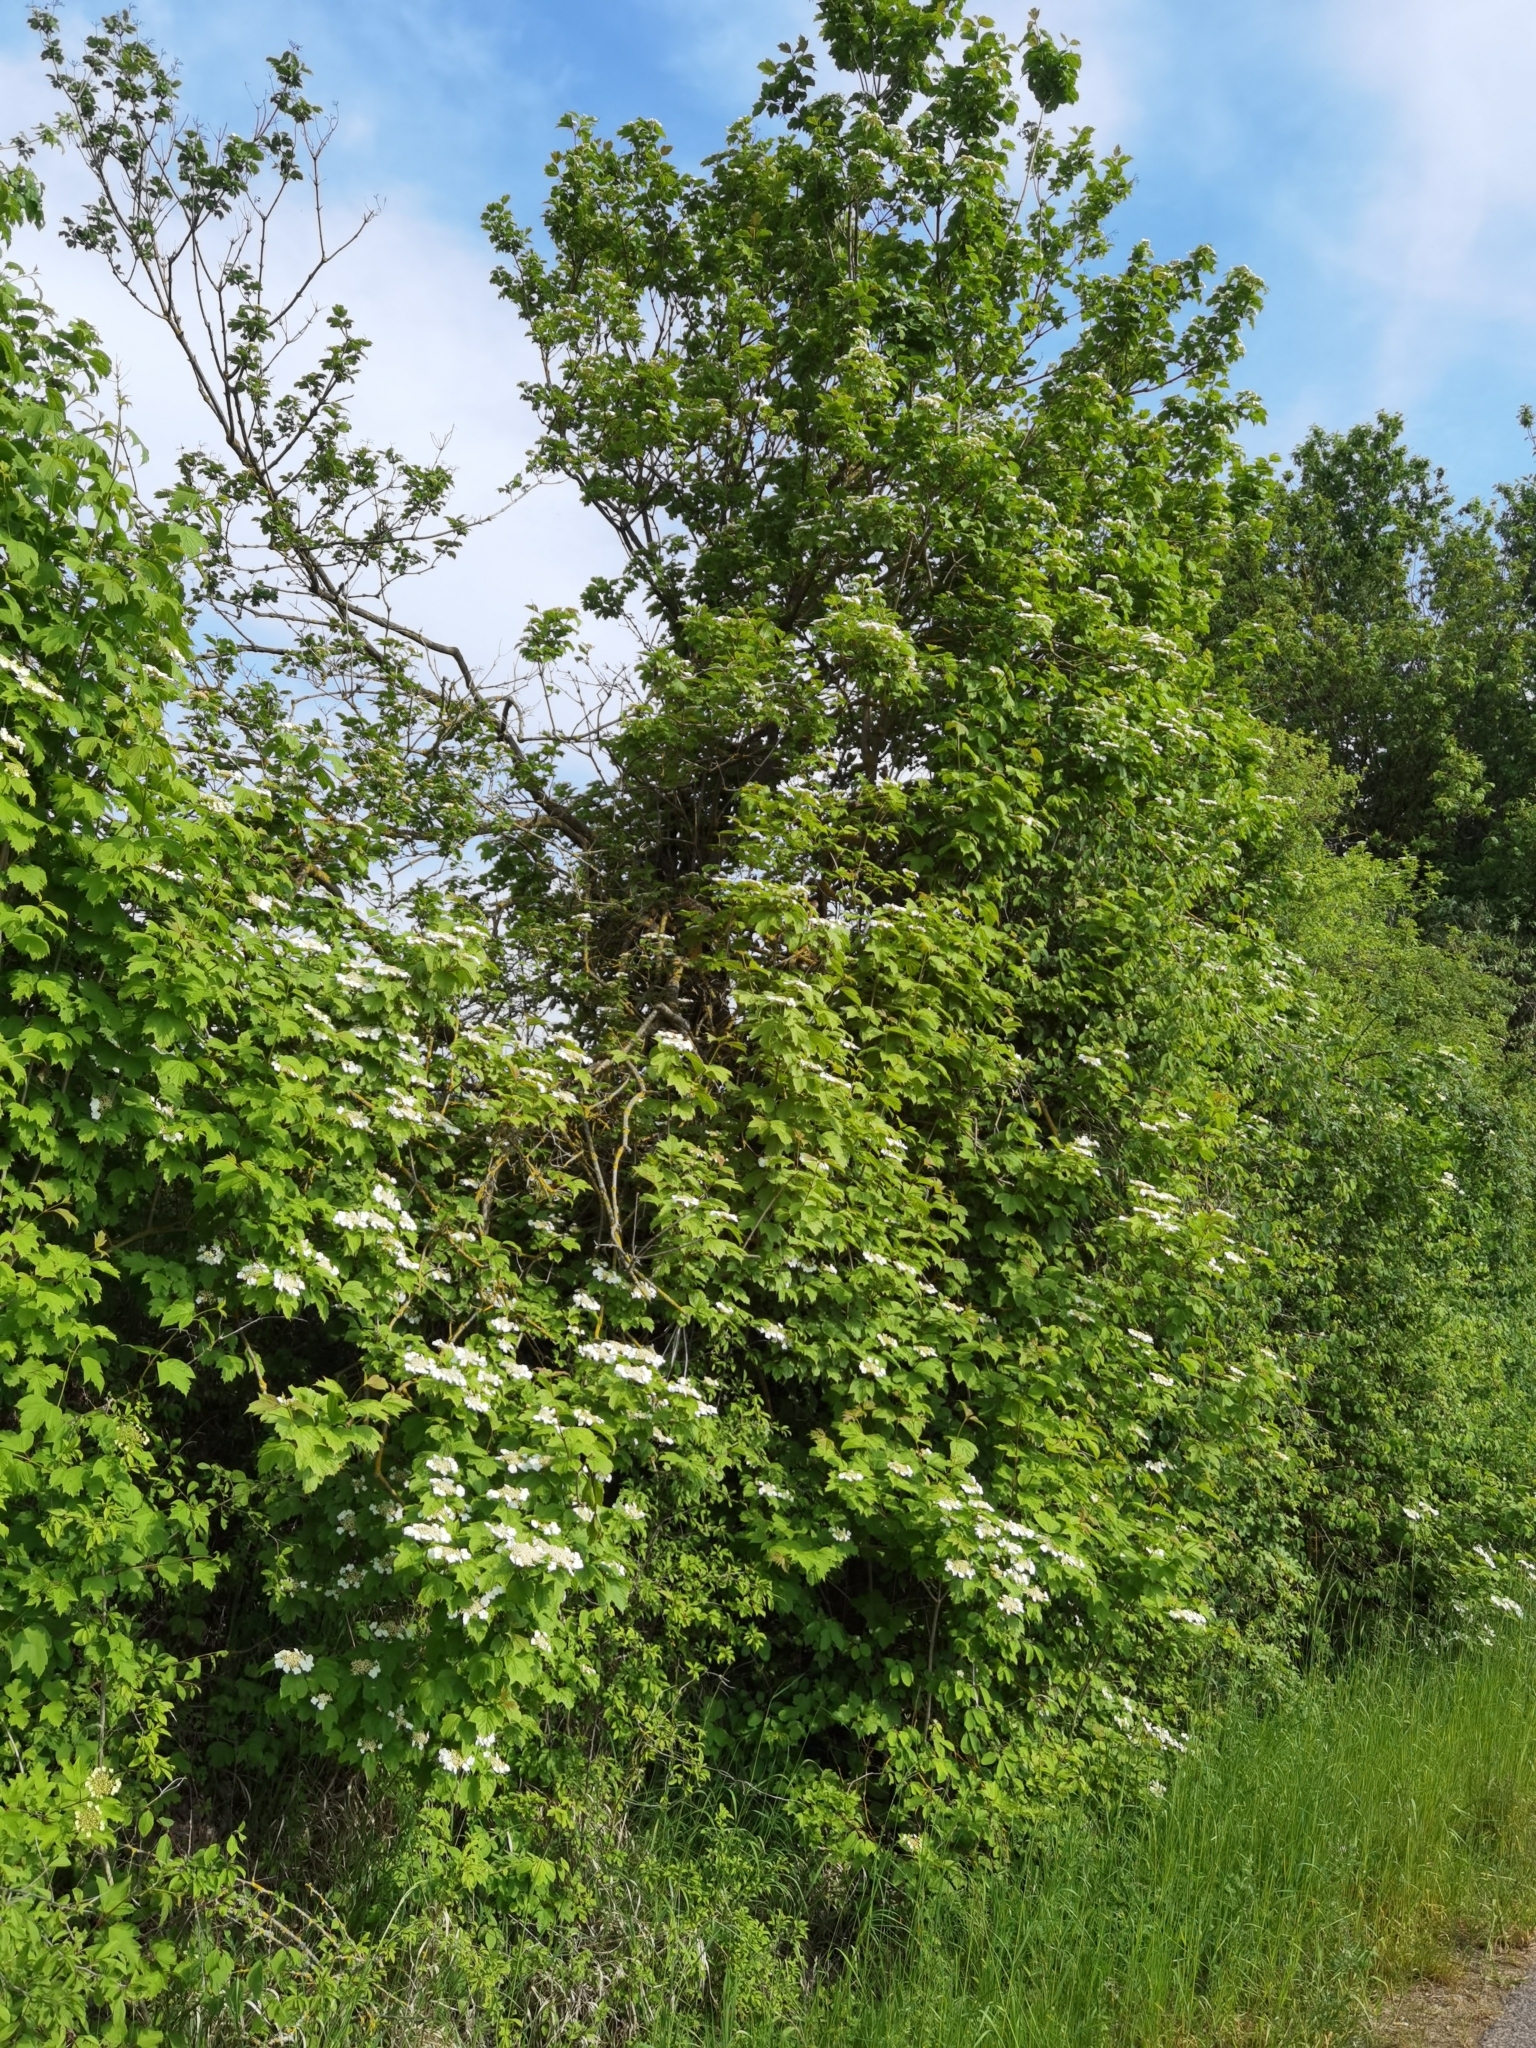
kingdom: Plantae
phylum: Tracheophyta
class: Magnoliopsida
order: Dipsacales
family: Viburnaceae
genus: Viburnum
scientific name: Viburnum opulus
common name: Guelder-rose
